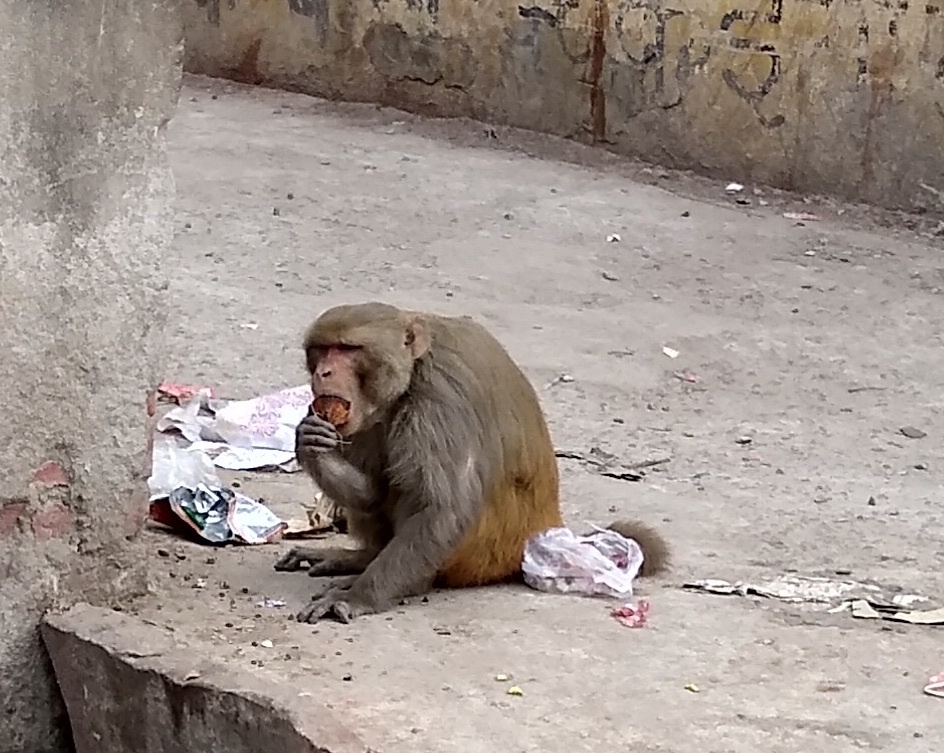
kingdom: Animalia
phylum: Chordata
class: Mammalia
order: Primates
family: Cercopithecidae
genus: Macaca
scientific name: Macaca mulatta
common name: Rhesus monkey
